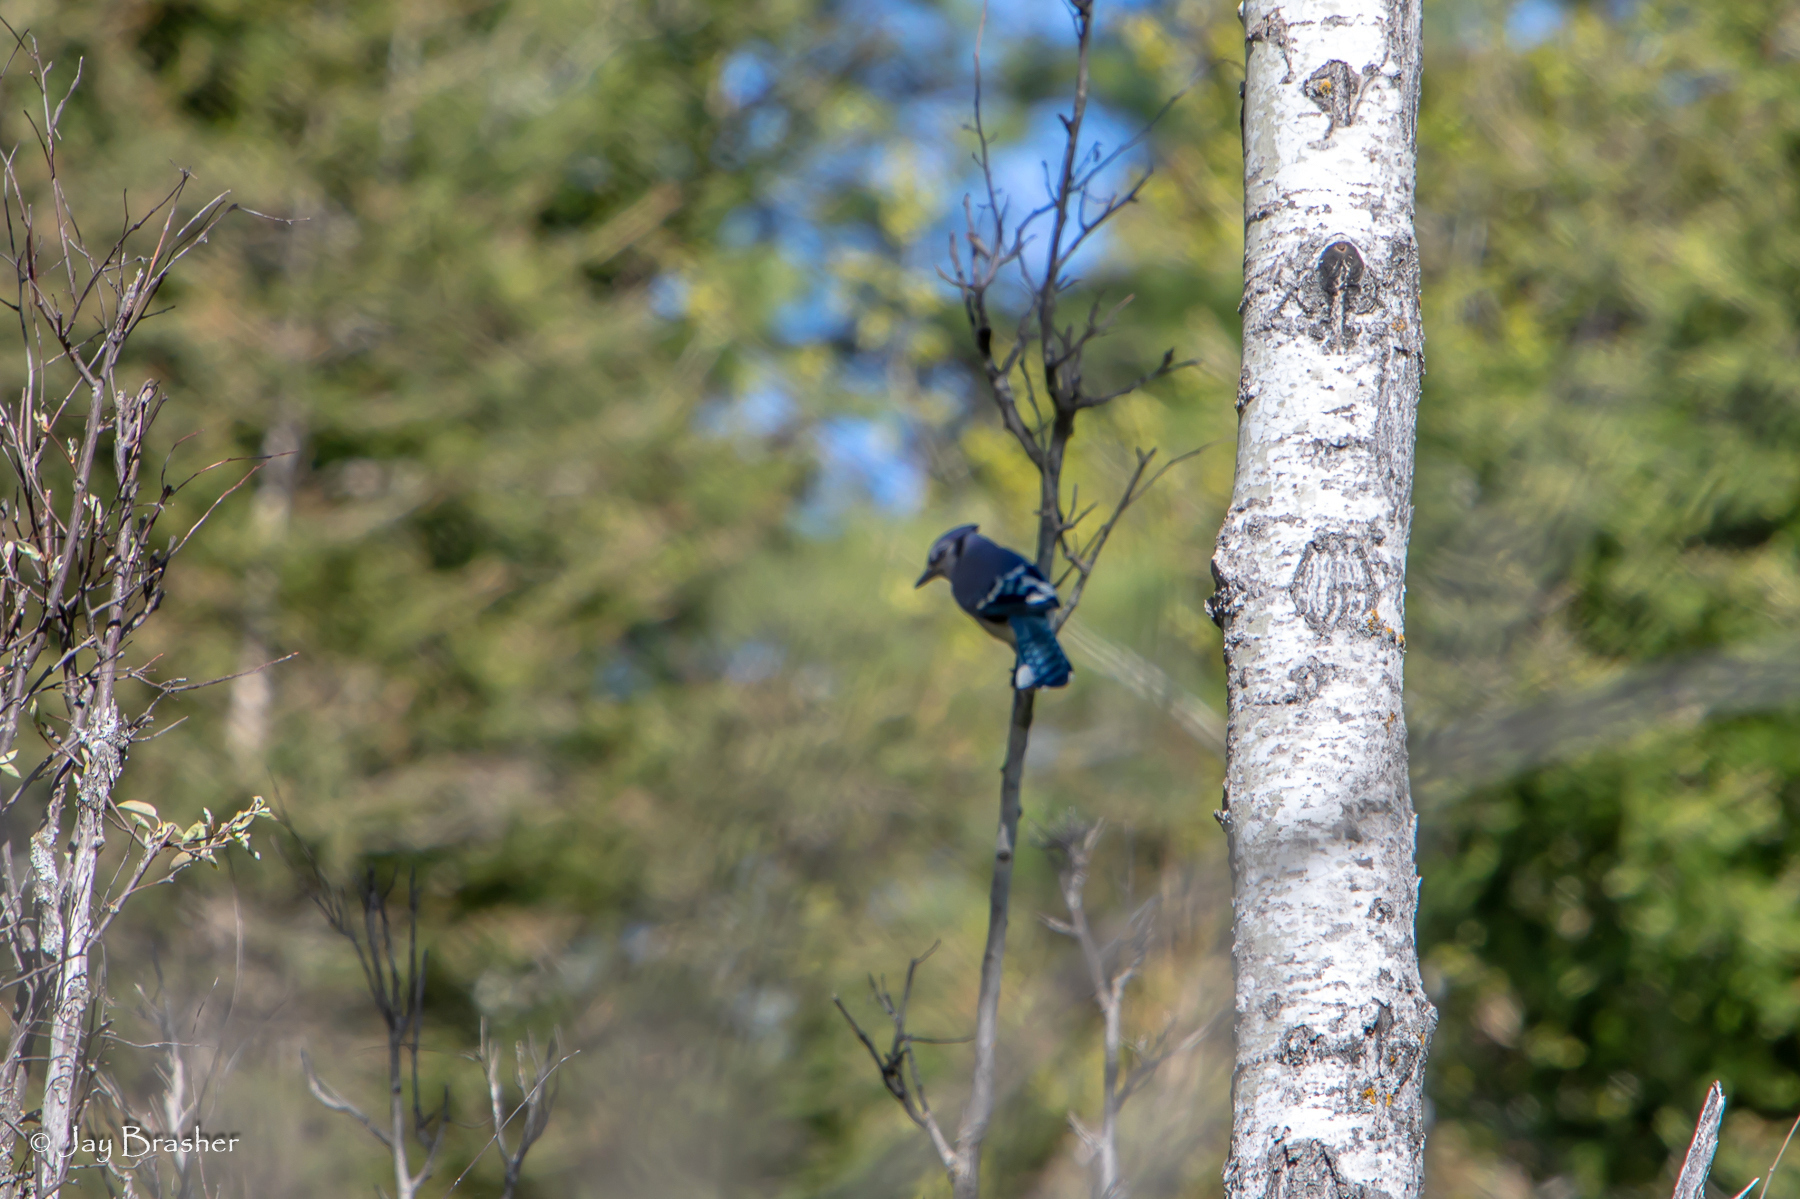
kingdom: Animalia
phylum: Chordata
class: Aves
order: Passeriformes
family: Corvidae
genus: Cyanocitta
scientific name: Cyanocitta cristata
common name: Blue jay
